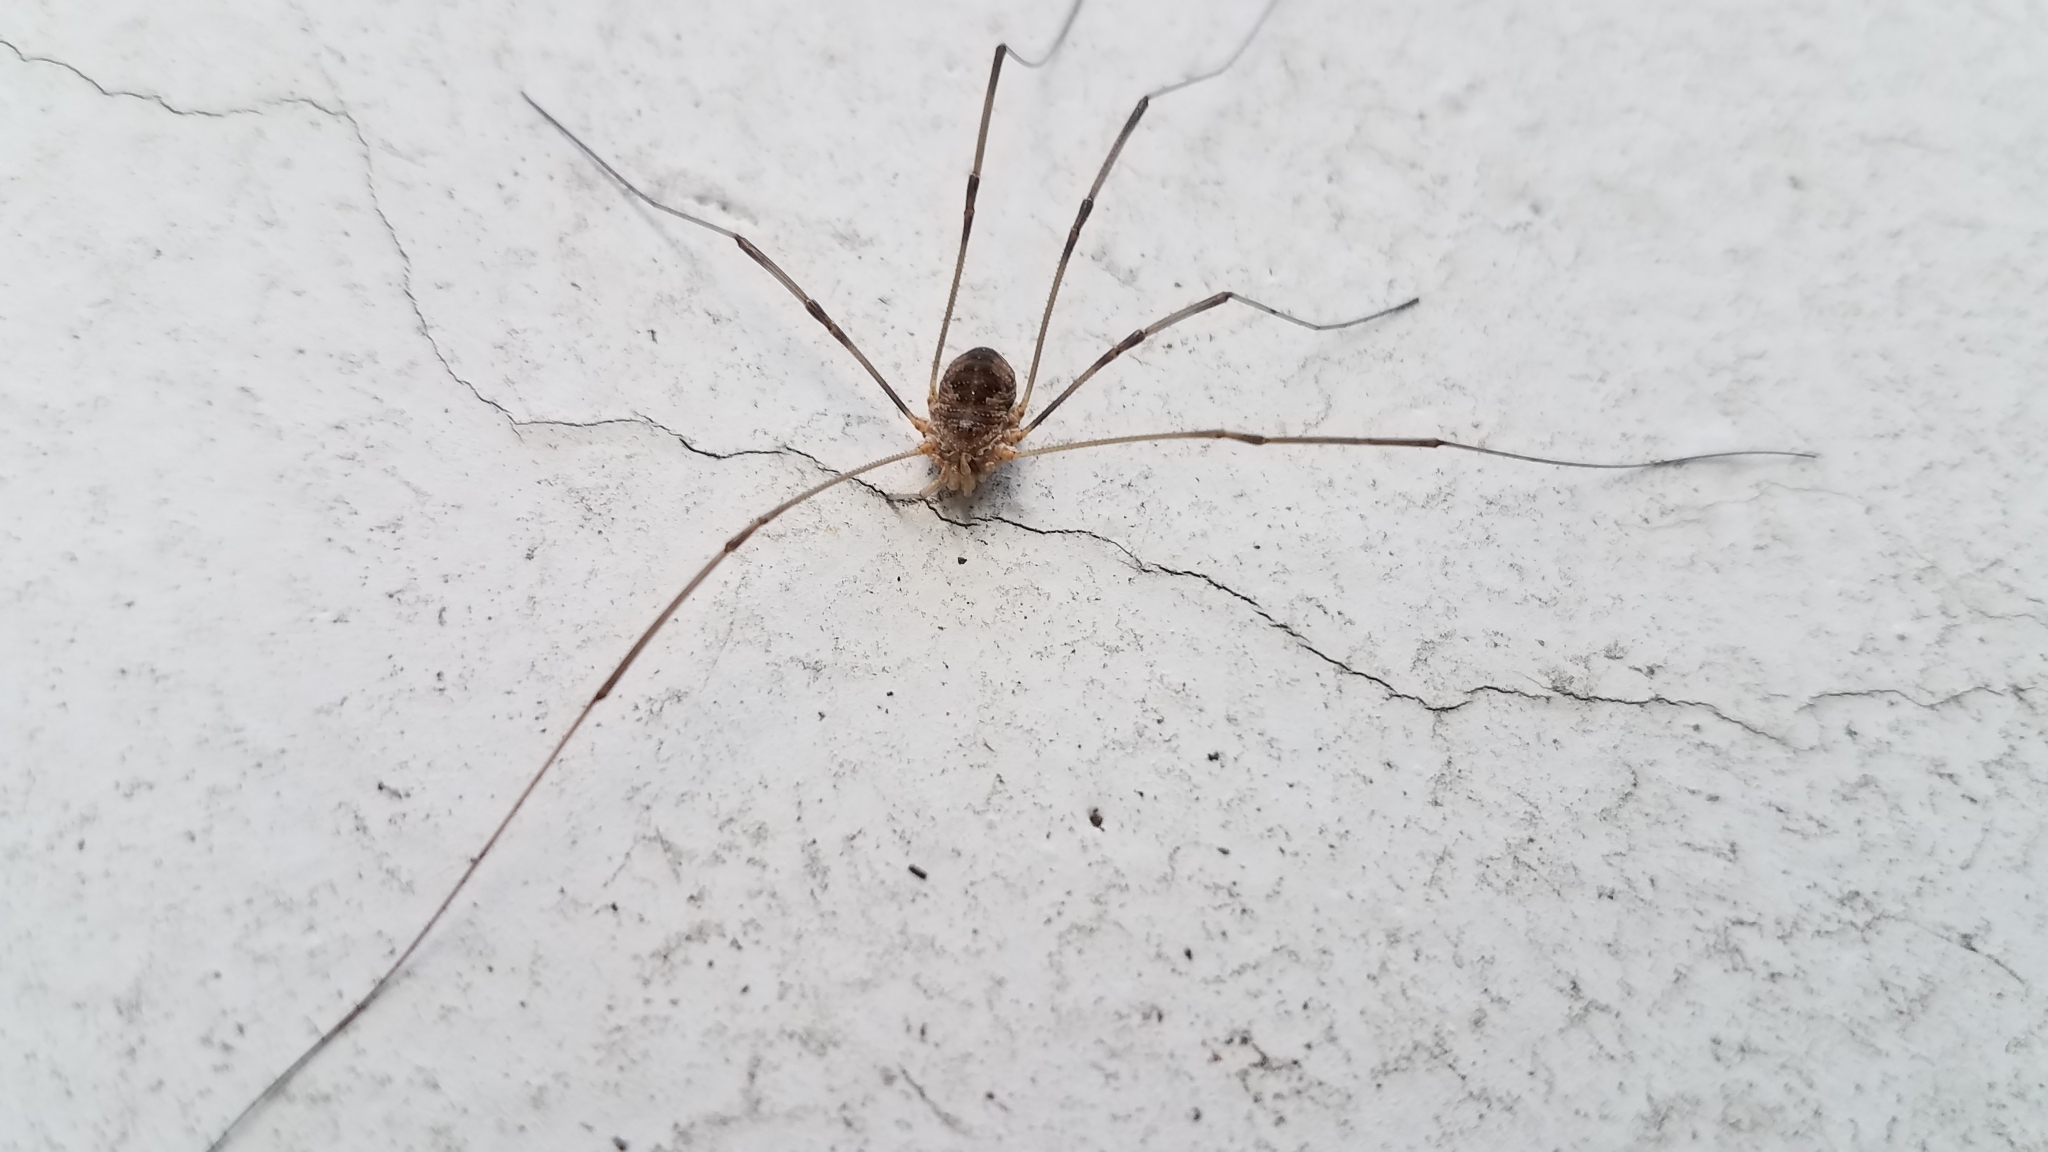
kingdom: Animalia
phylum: Arthropoda
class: Arachnida
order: Opiliones
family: Phalangiidae
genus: Phalangium
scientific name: Phalangium opilio
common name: Daddy longleg
